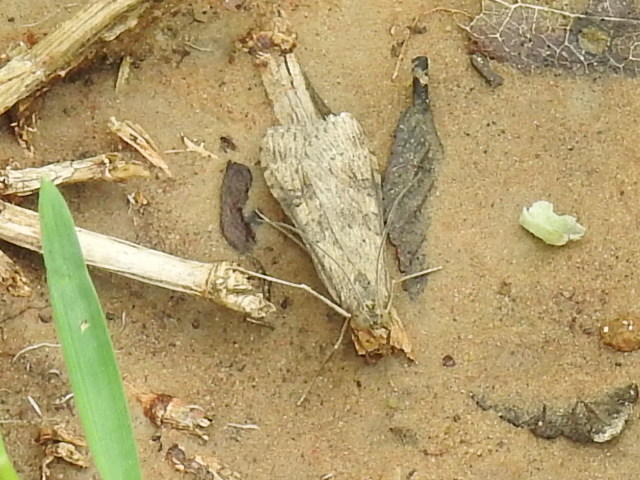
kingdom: Animalia
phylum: Arthropoda
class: Insecta
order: Lepidoptera
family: Crambidae
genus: Nomophila
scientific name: Nomophila nearctica
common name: American rush veneer
